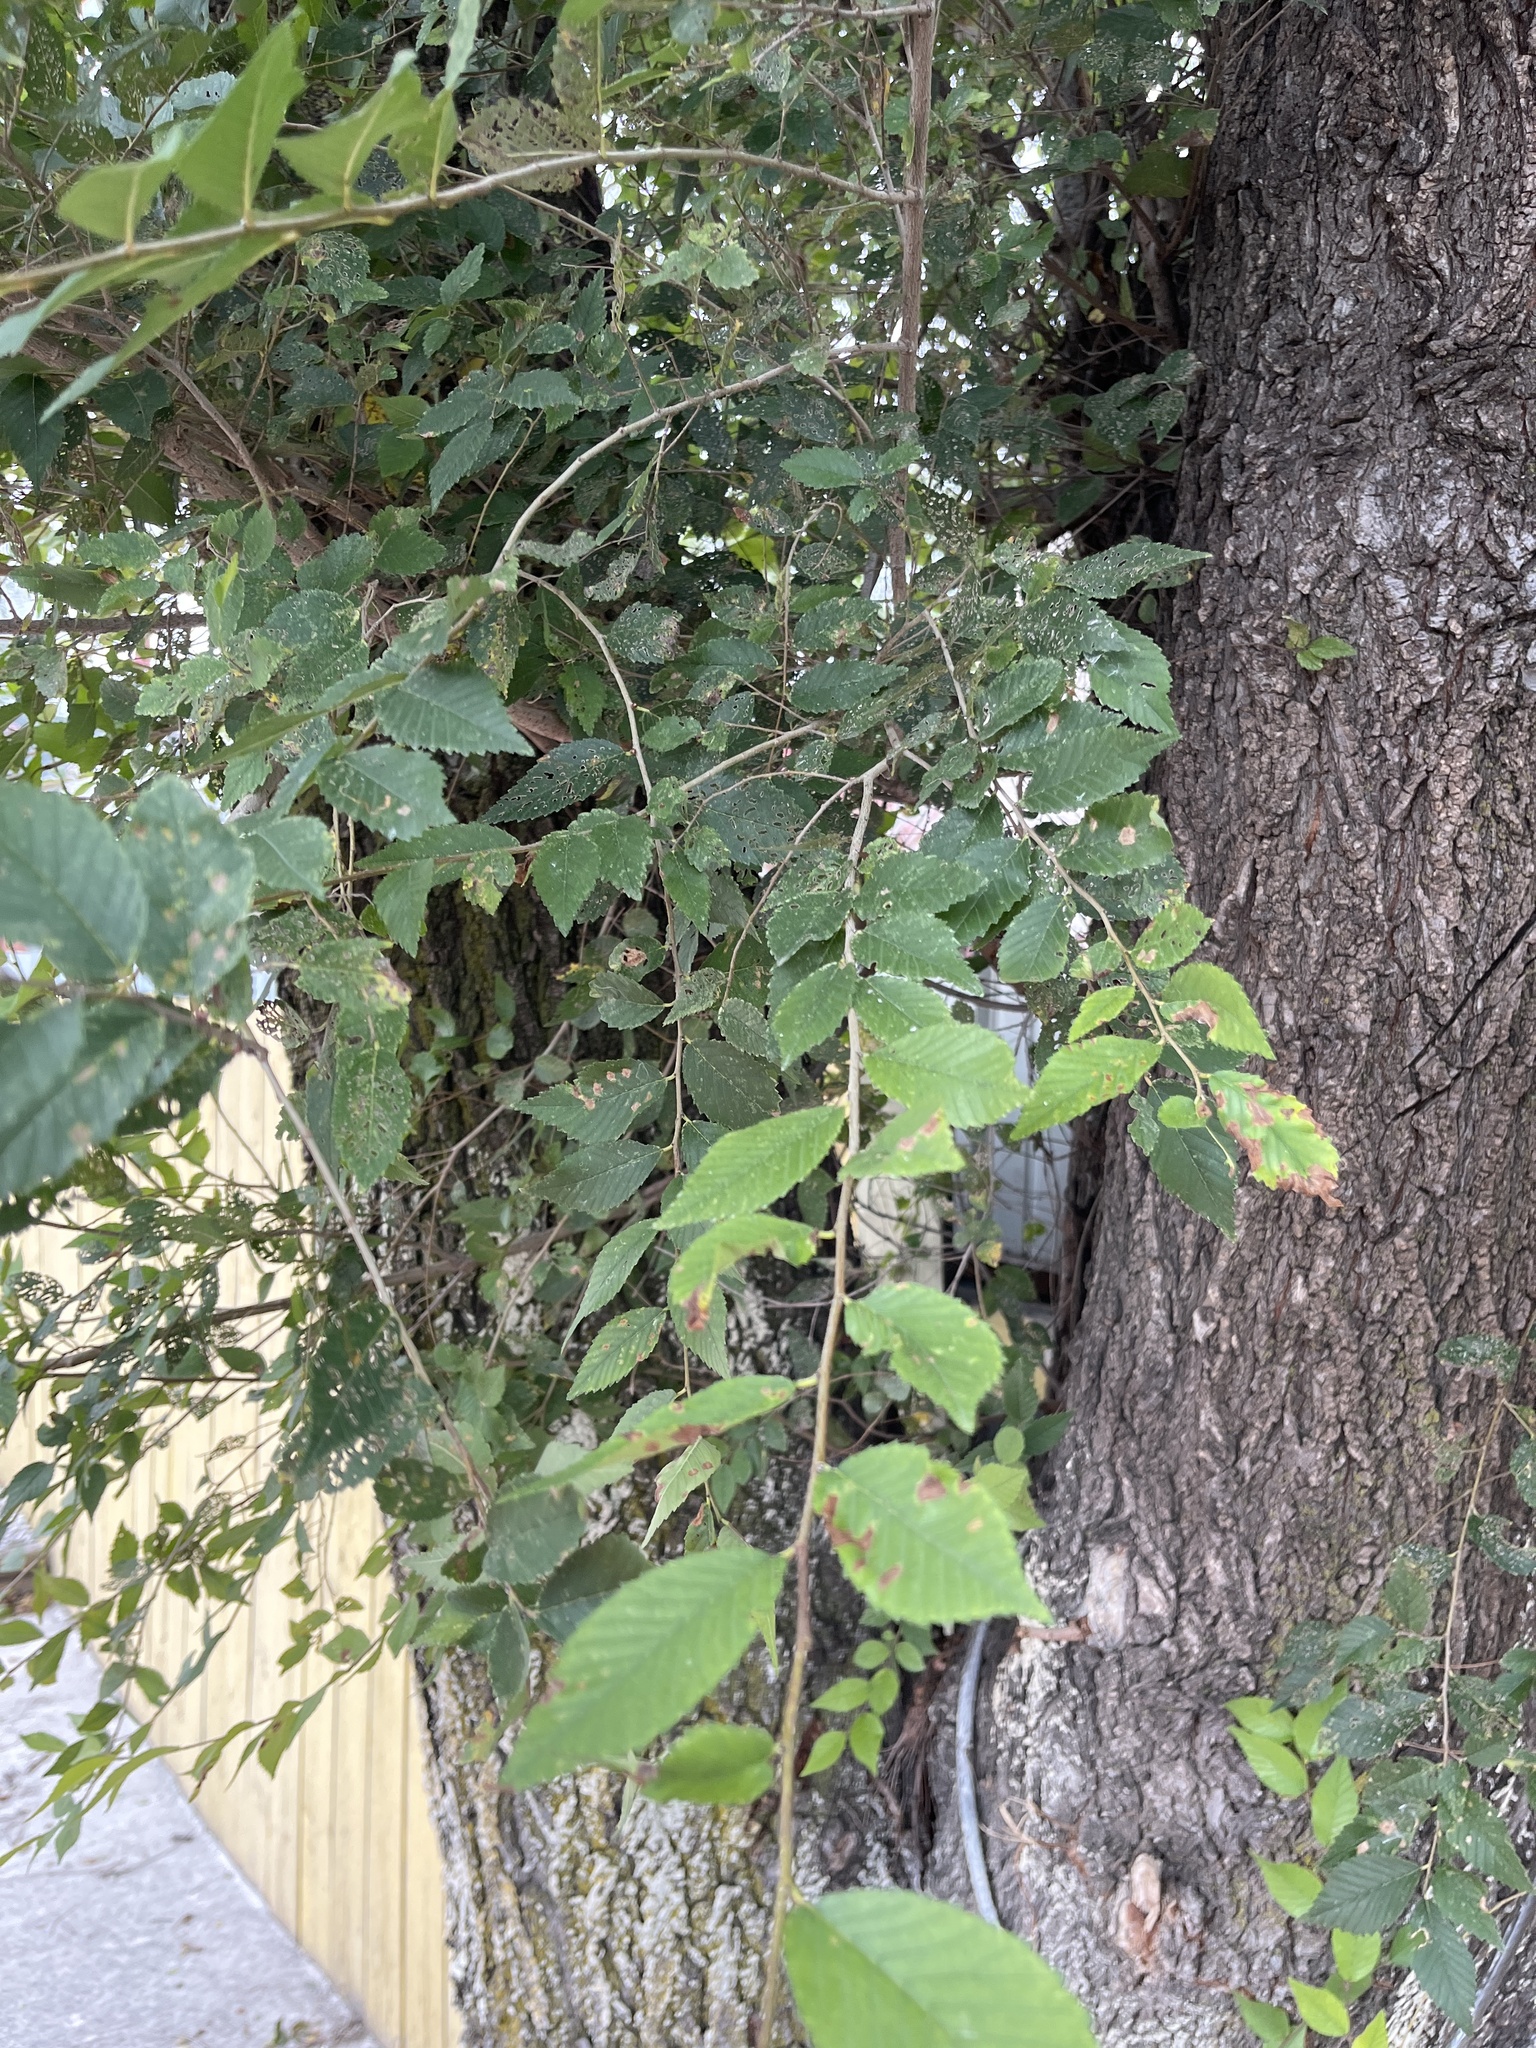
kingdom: Plantae
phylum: Tracheophyta
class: Magnoliopsida
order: Rosales
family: Ulmaceae
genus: Ulmus
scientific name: Ulmus pumila
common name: Siberian elm
